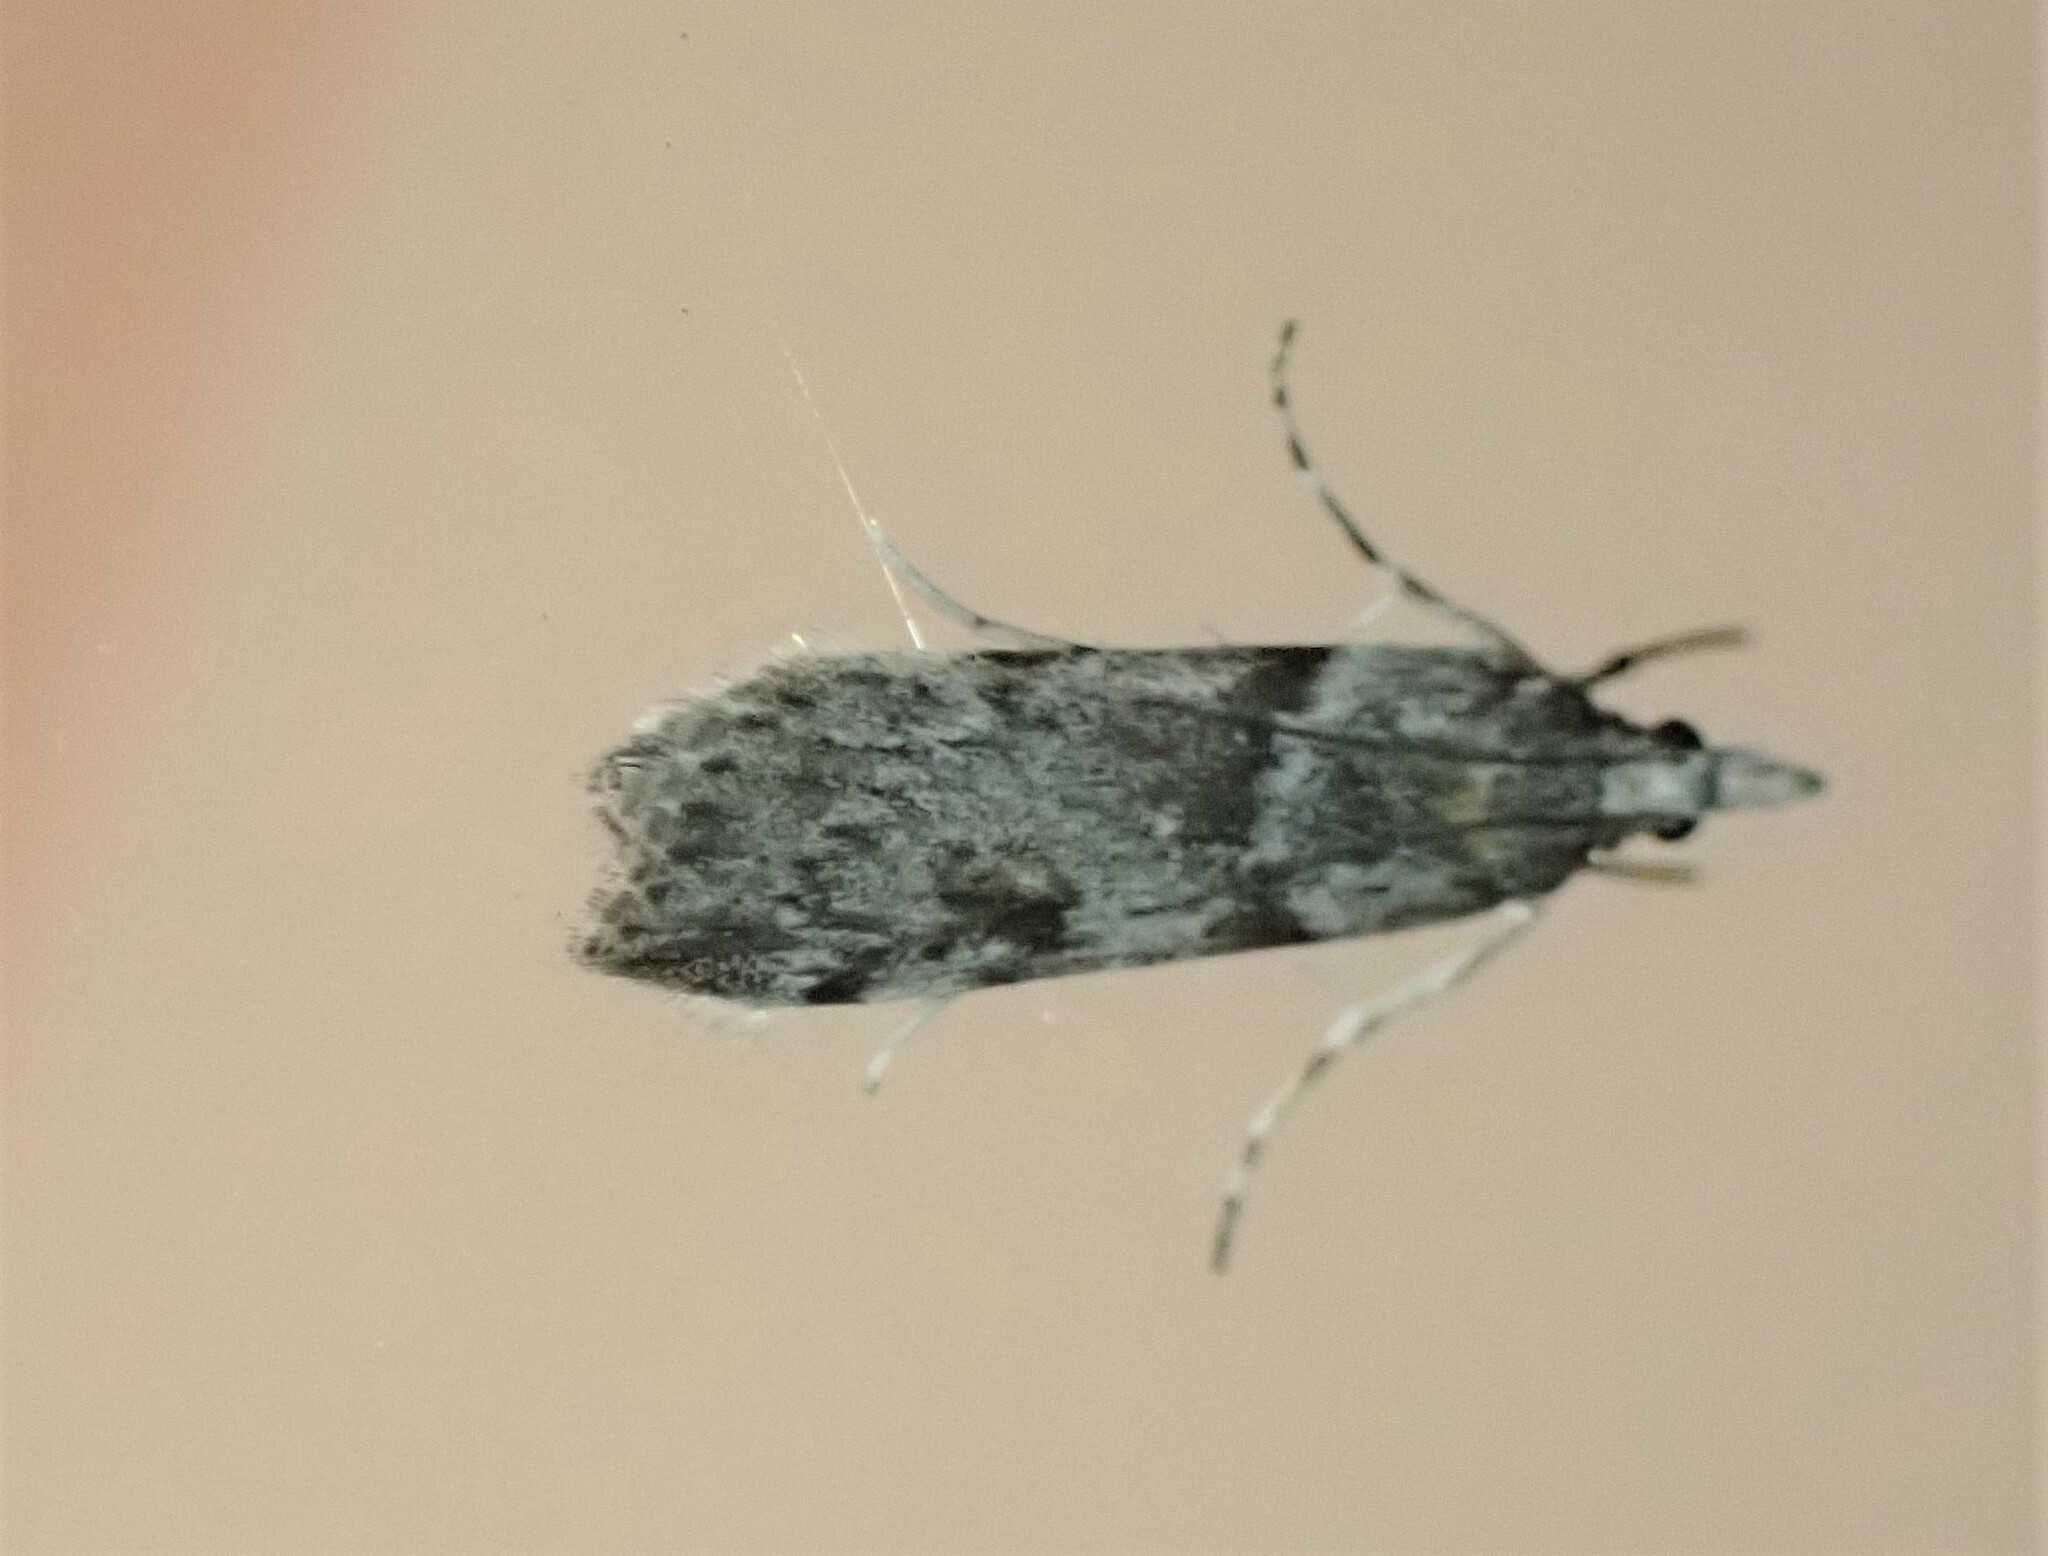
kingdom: Animalia
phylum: Arthropoda
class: Insecta
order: Lepidoptera
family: Crambidae
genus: Scoparia
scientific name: Scoparia halopis
